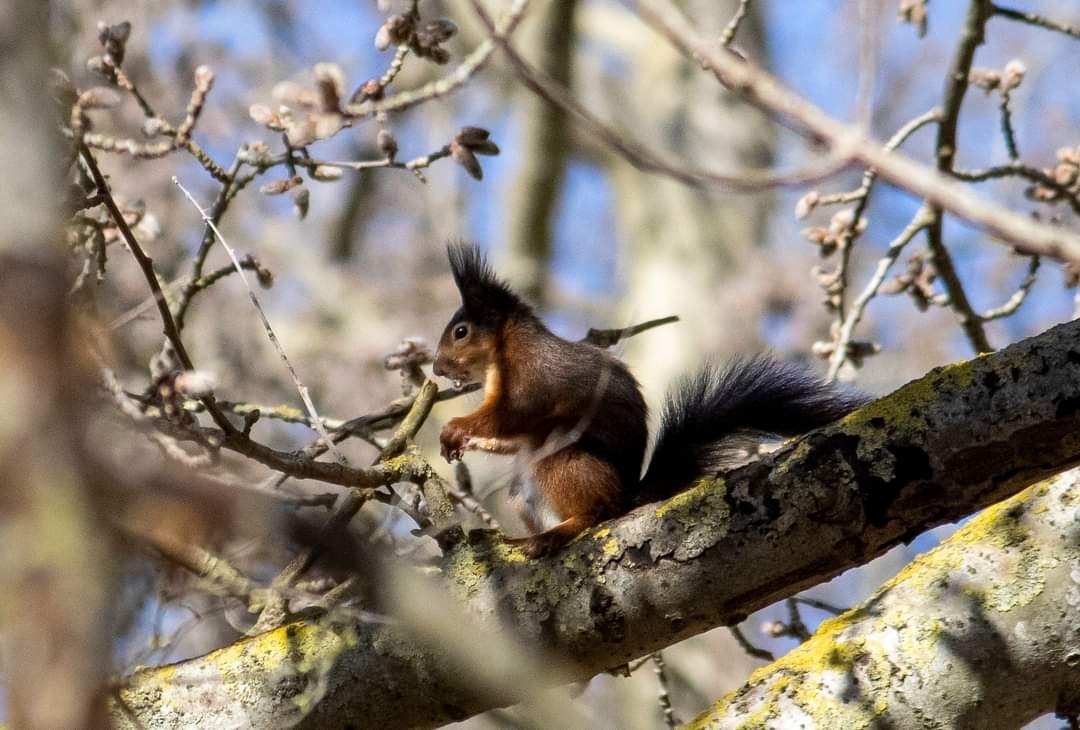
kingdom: Animalia
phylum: Chordata
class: Mammalia
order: Rodentia
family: Sciuridae
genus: Sciurus
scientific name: Sciurus vulgaris
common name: Eurasian red squirrel
